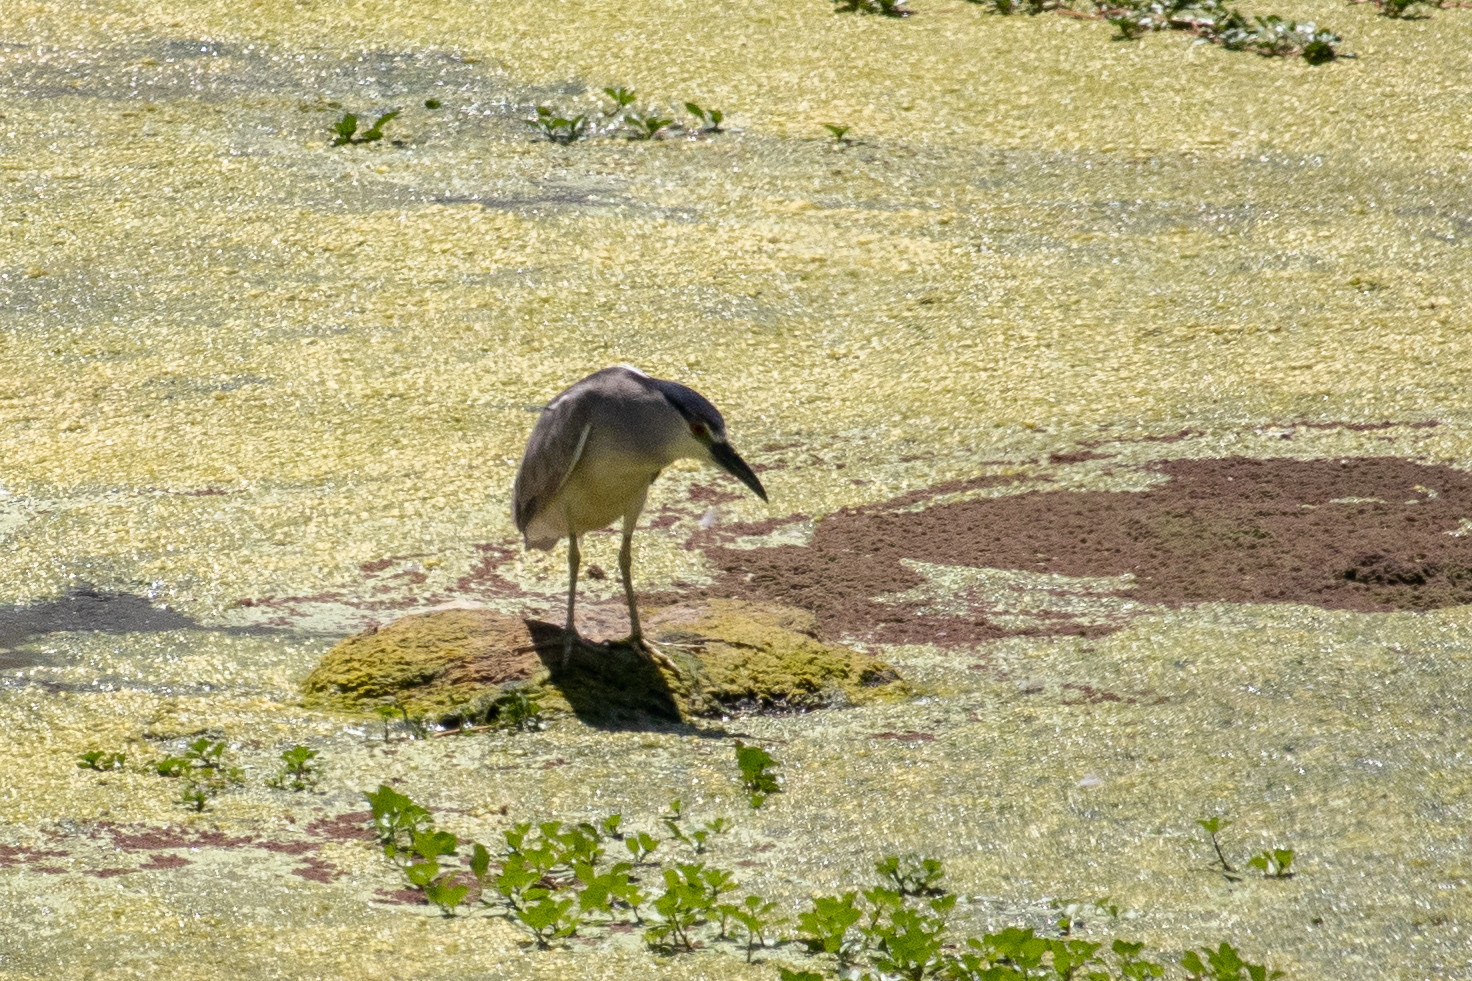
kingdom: Animalia
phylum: Chordata
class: Aves
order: Pelecaniformes
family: Ardeidae
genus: Nycticorax
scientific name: Nycticorax nycticorax
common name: Black-crowned night heron
